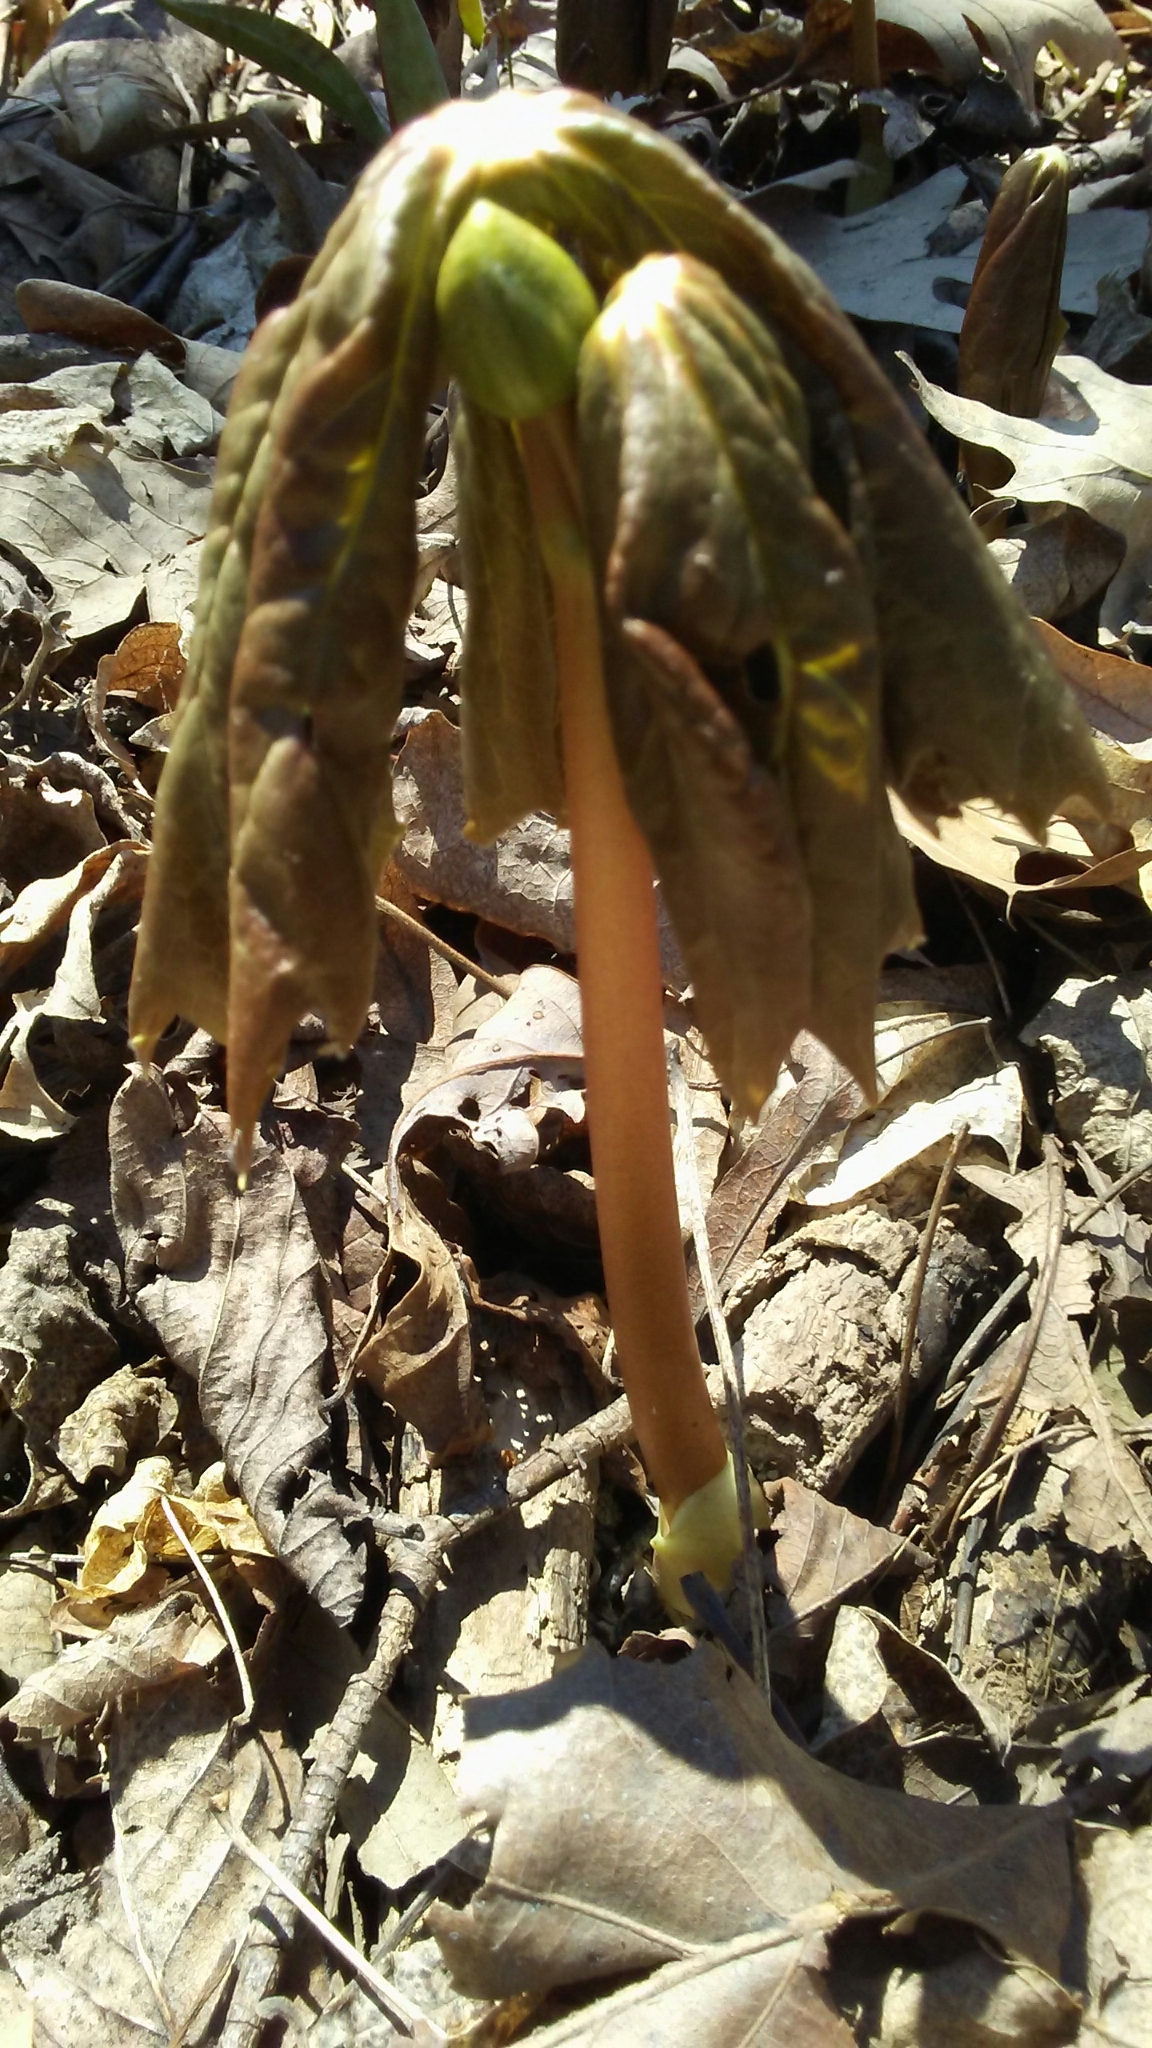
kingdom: Plantae
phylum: Tracheophyta
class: Magnoliopsida
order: Ranunculales
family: Berberidaceae
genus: Podophyllum
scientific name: Podophyllum peltatum
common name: Wild mandrake
